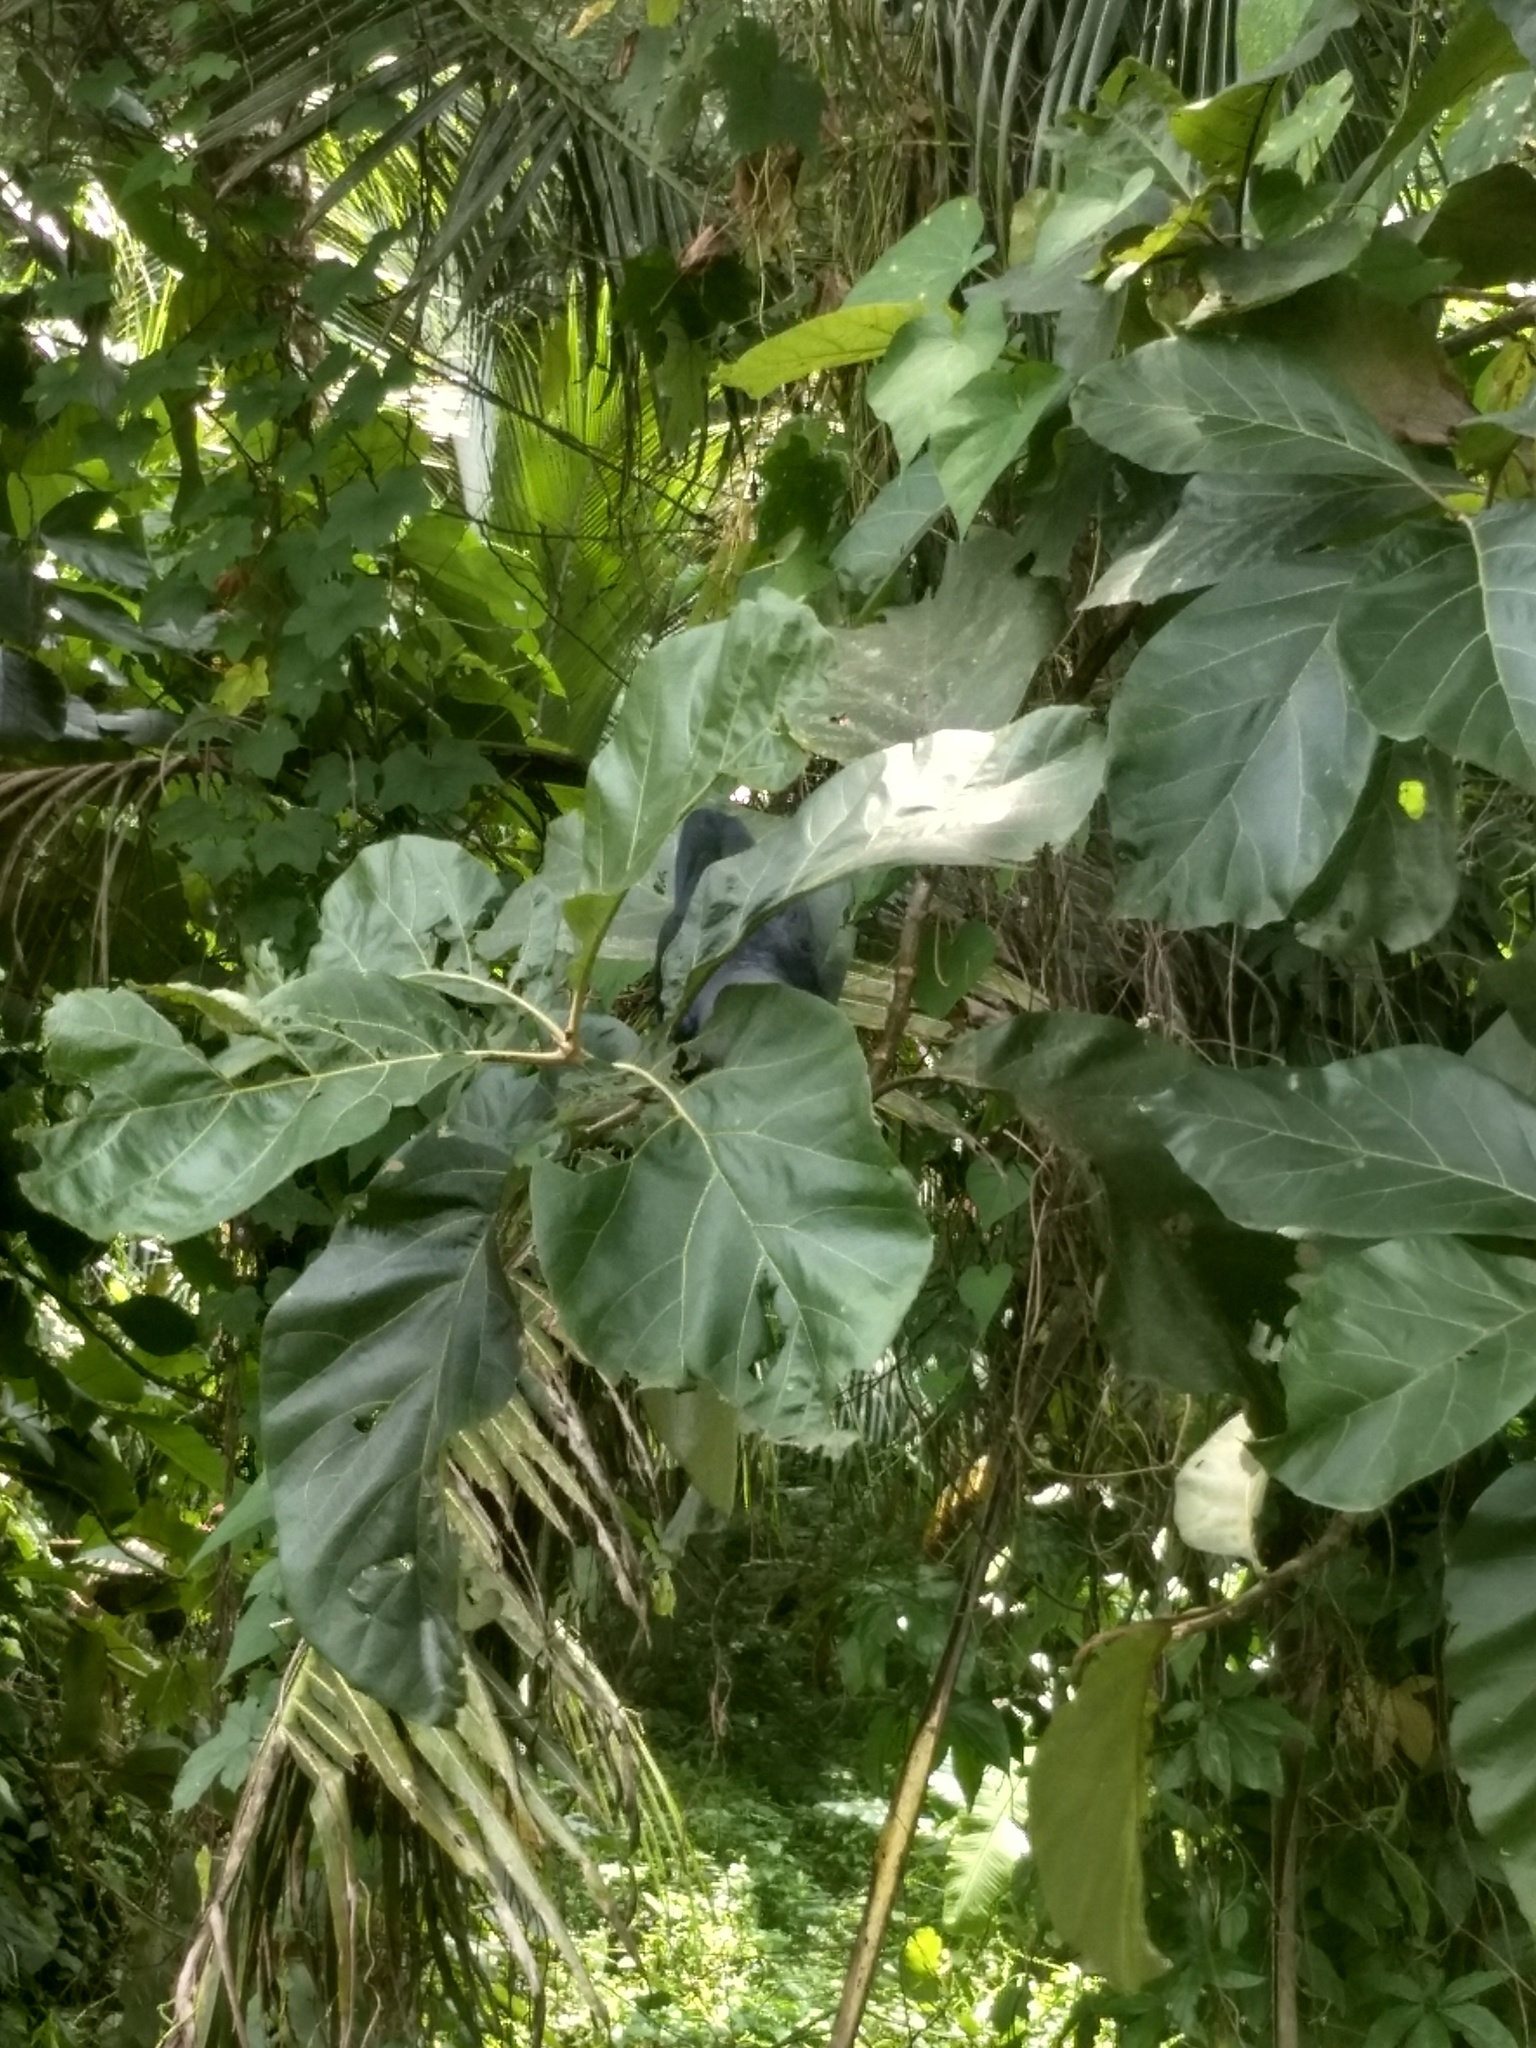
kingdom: Plantae
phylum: Tracheophyta
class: Magnoliopsida
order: Lamiales
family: Lamiaceae
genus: Tectona
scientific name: Tectona grandis
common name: Teak
